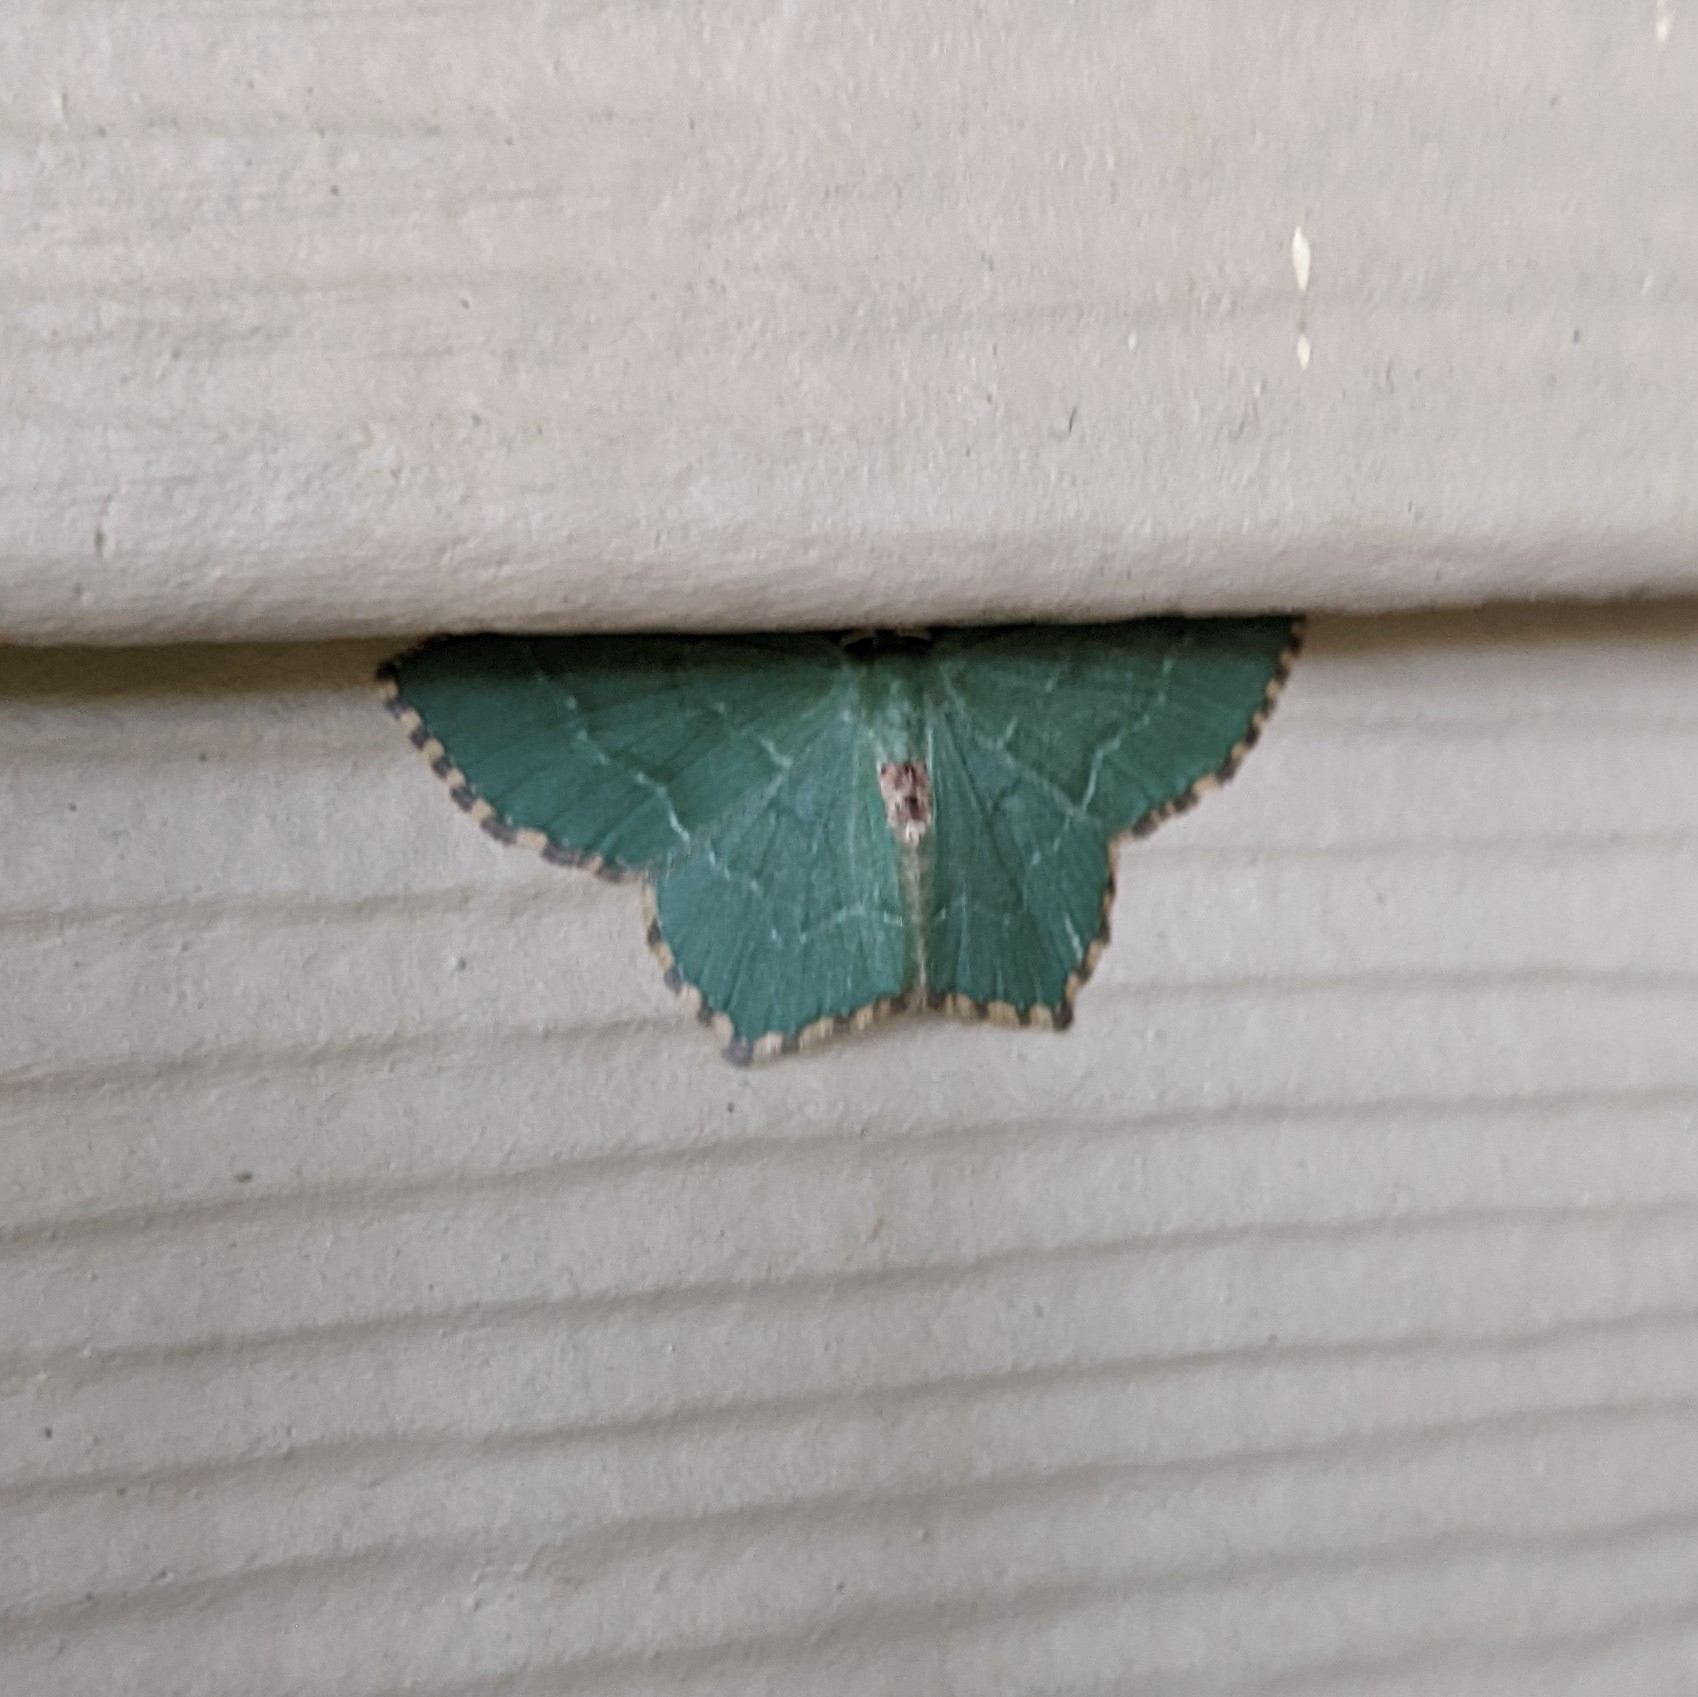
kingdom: Animalia
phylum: Arthropoda
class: Insecta
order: Lepidoptera
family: Geometridae
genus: Hemithea
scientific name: Hemithea aestivaria
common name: Common emerald
